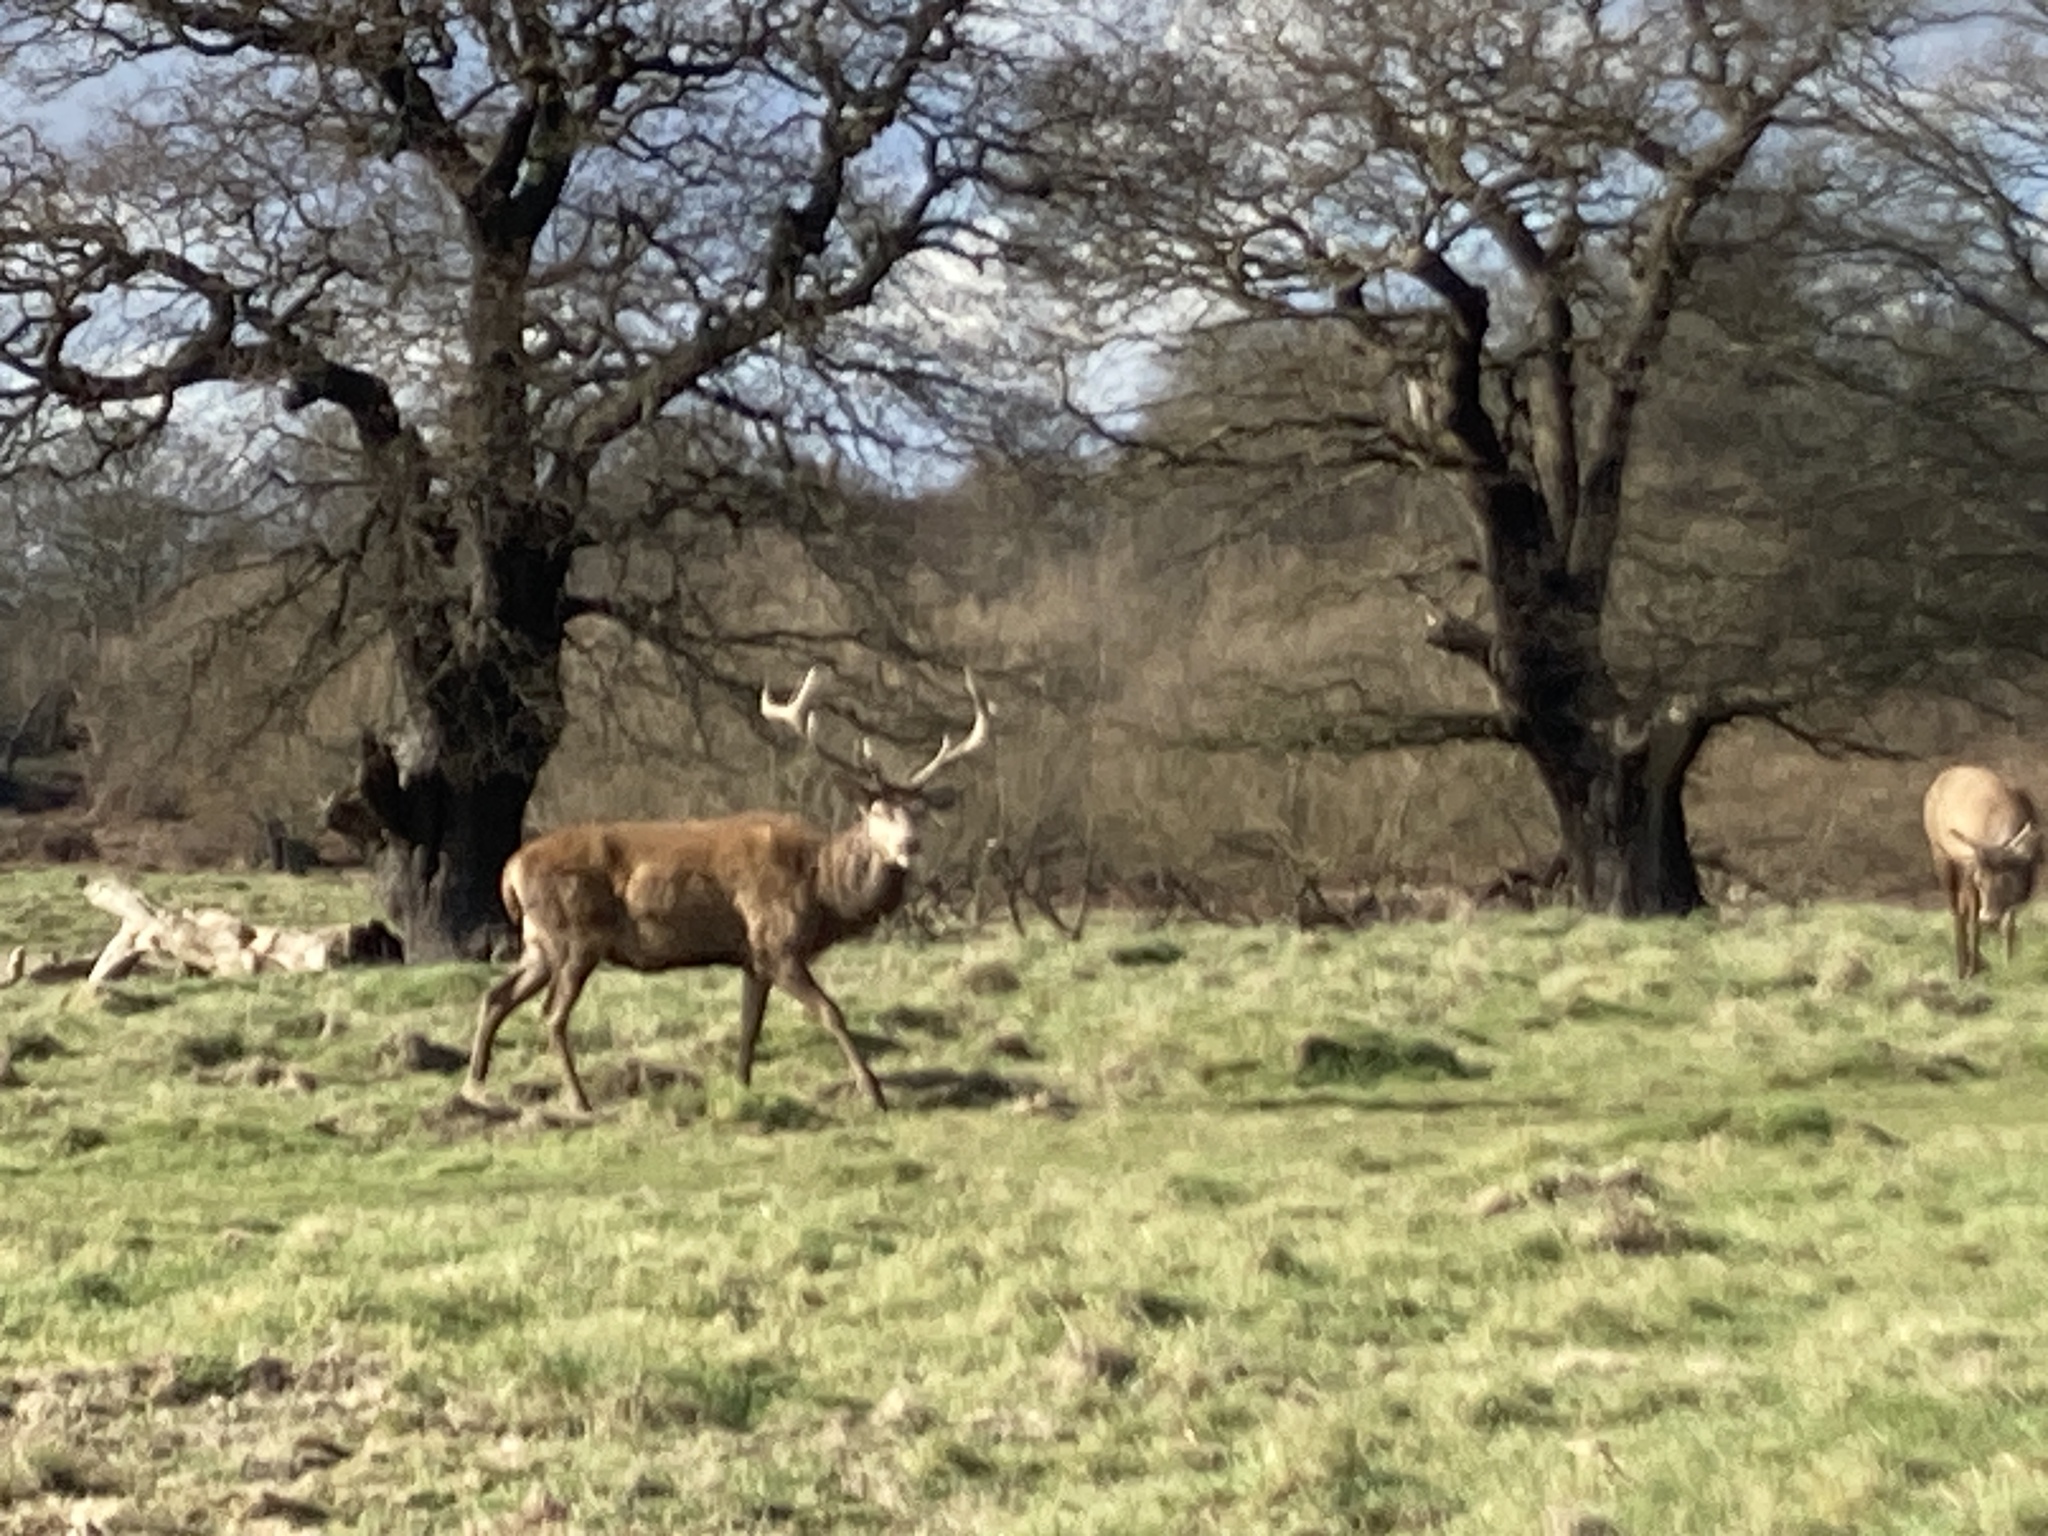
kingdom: Animalia
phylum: Chordata
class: Mammalia
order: Artiodactyla
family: Cervidae
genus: Cervus
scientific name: Cervus elaphus
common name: Red deer
